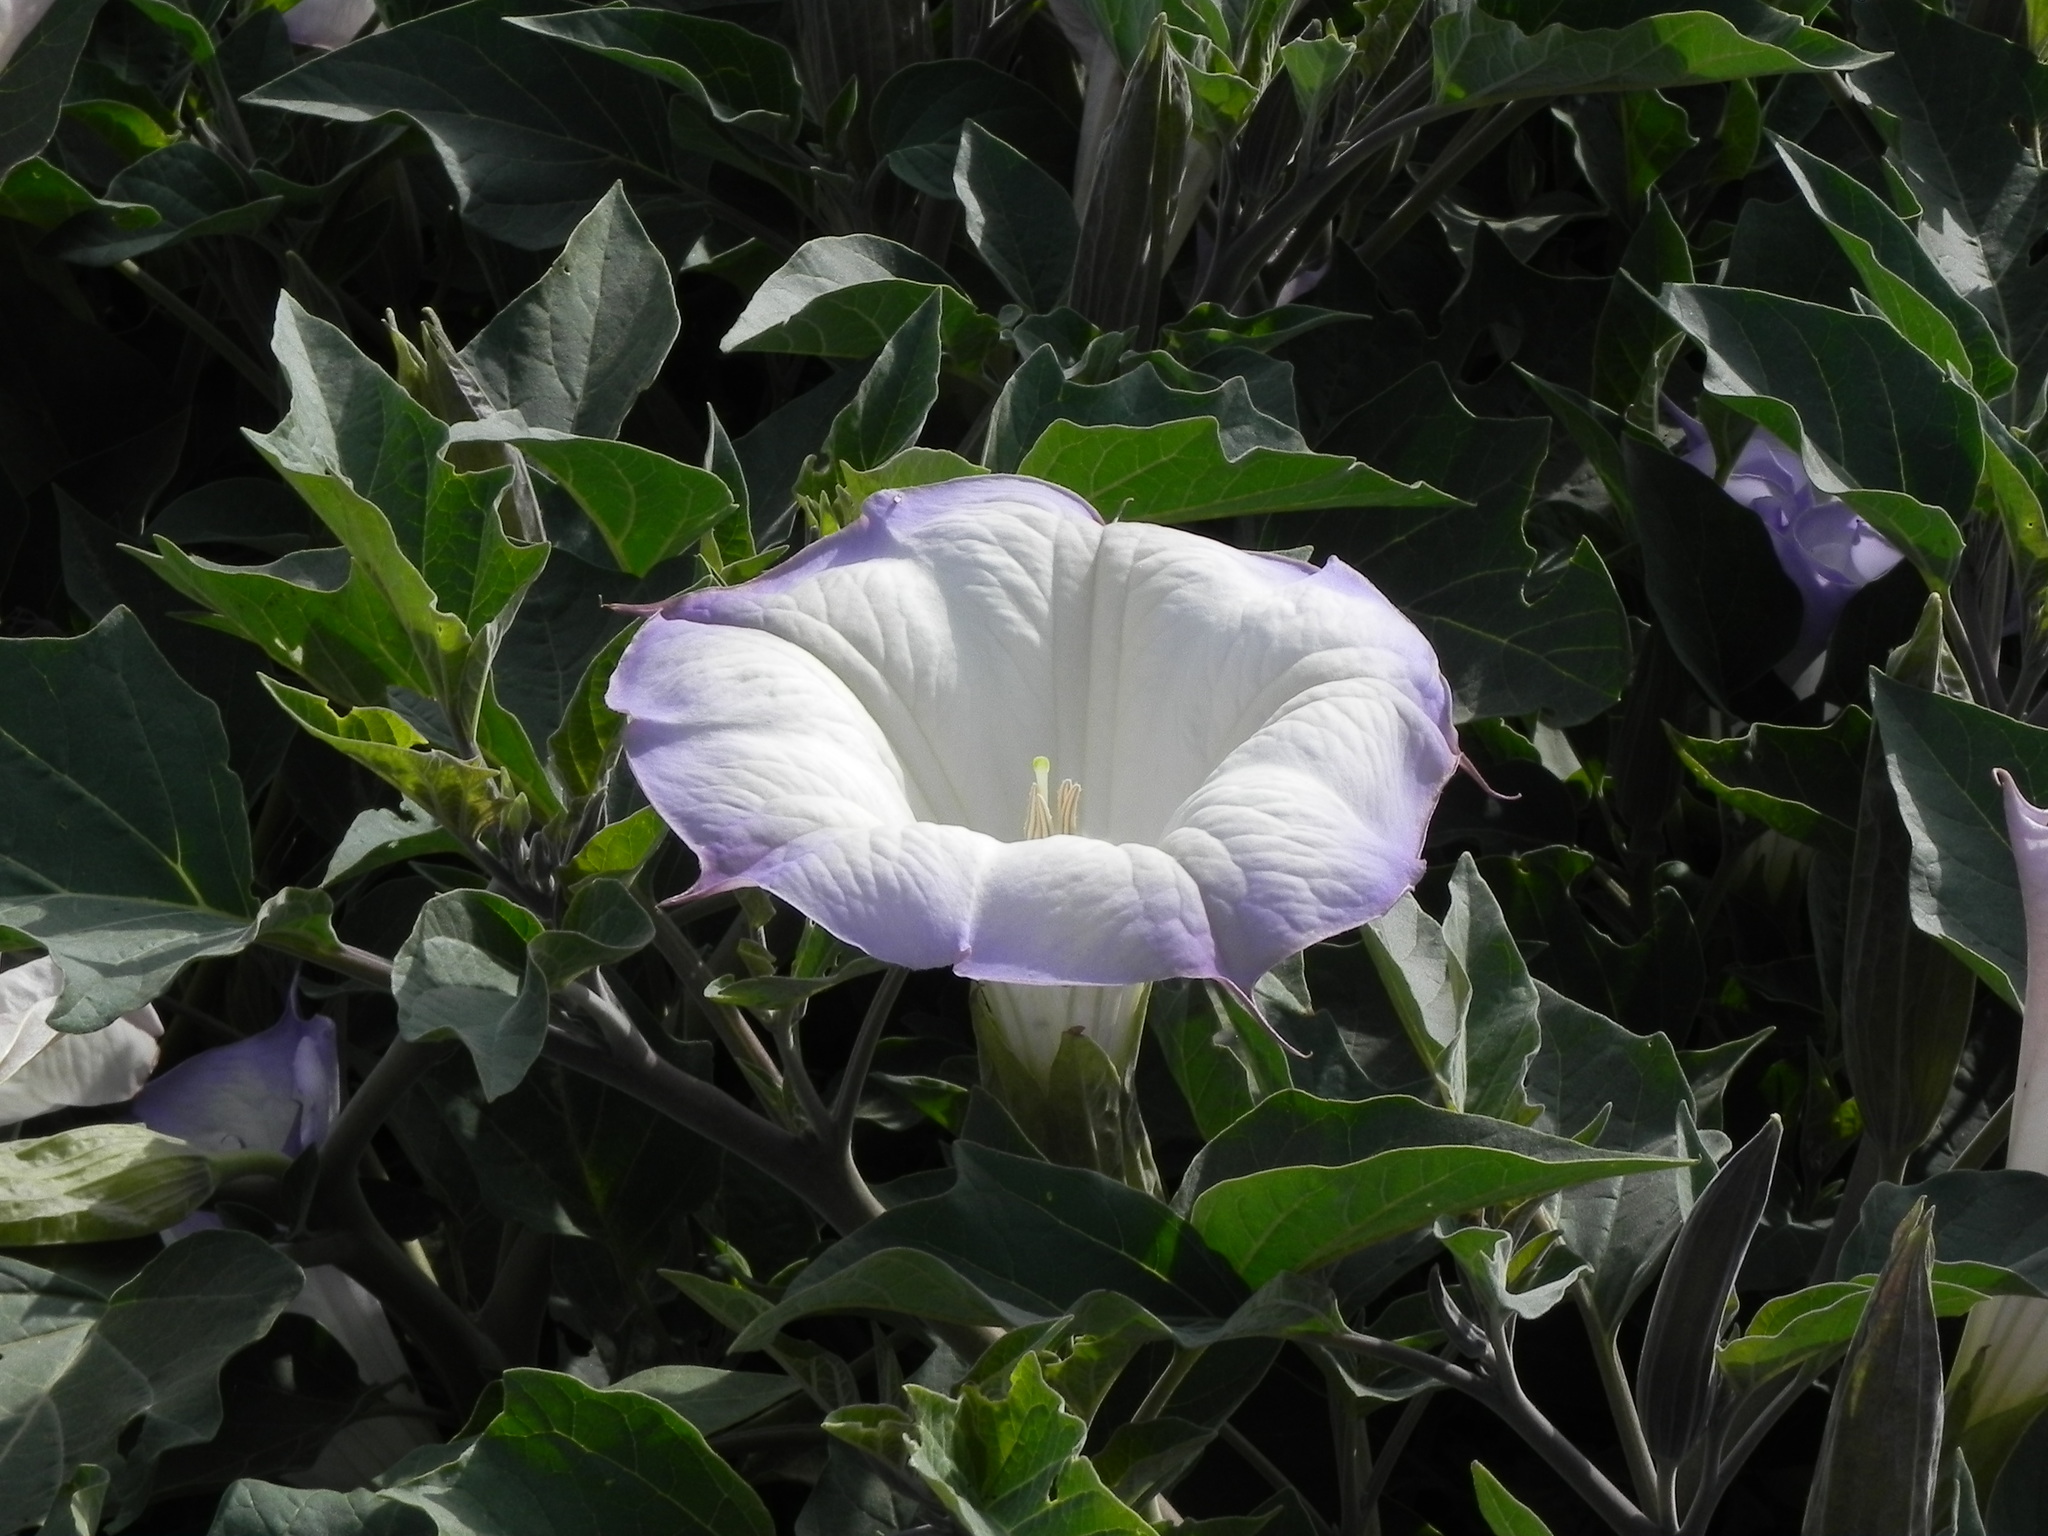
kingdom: Plantae
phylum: Tracheophyta
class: Magnoliopsida
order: Solanales
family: Solanaceae
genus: Datura
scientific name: Datura wrightii
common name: Sacred thorn-apple
